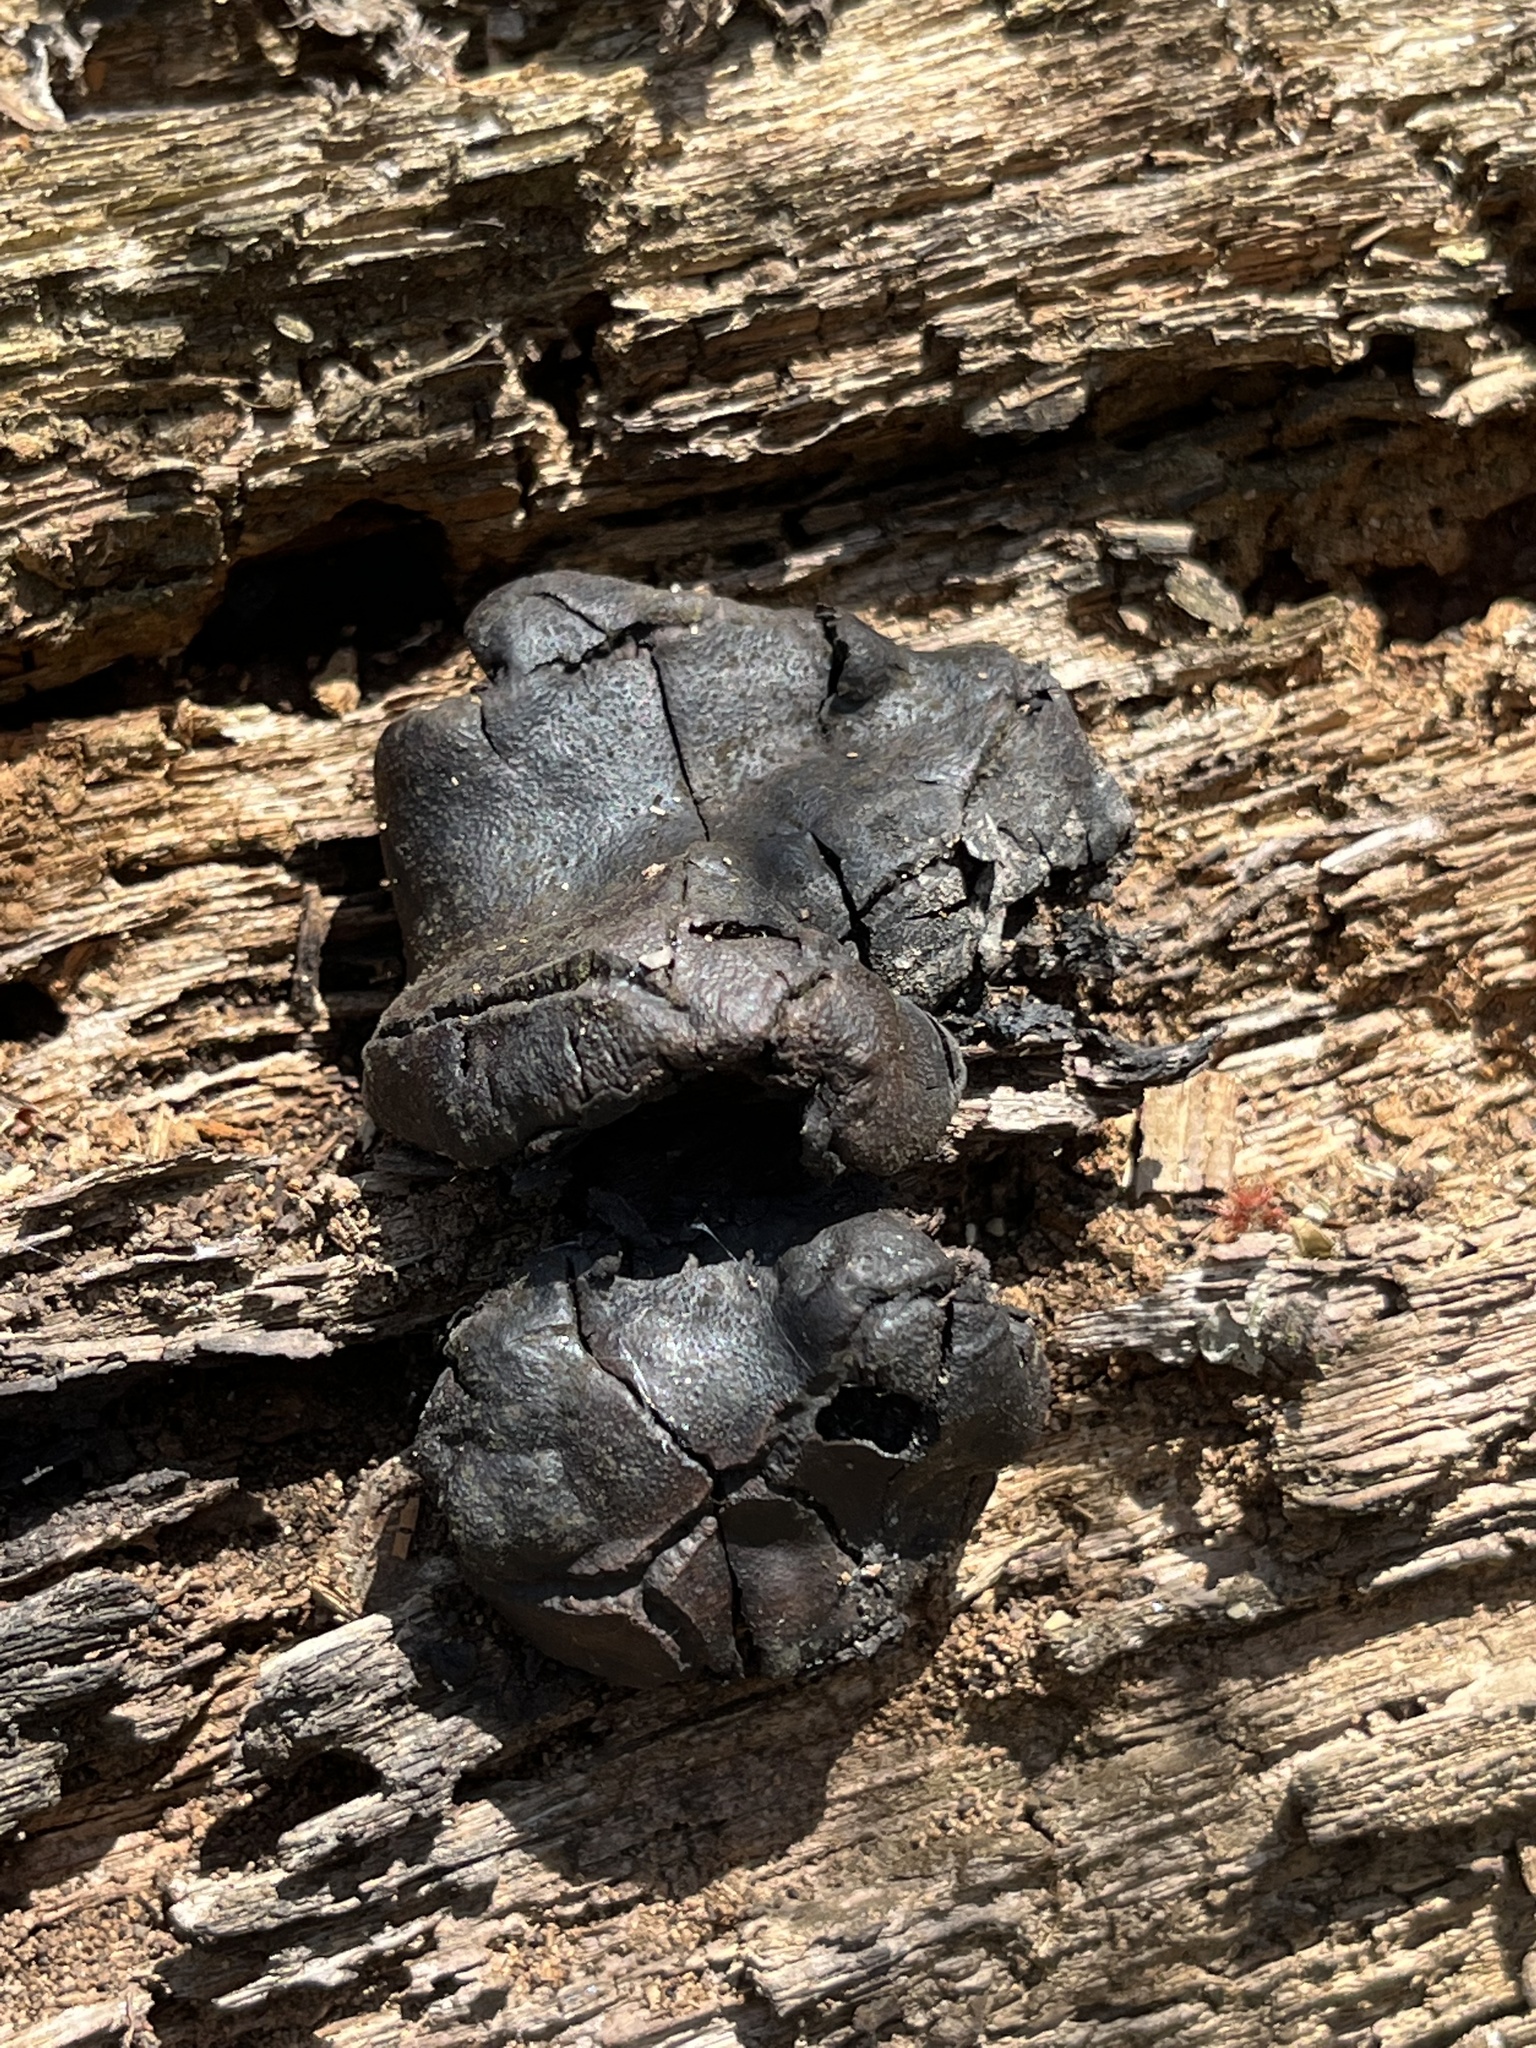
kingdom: Fungi
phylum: Ascomycota
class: Sordariomycetes
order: Boliniales
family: Boliniaceae
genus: Camarops
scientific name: Camarops petersii
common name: Dog's nose fungus
